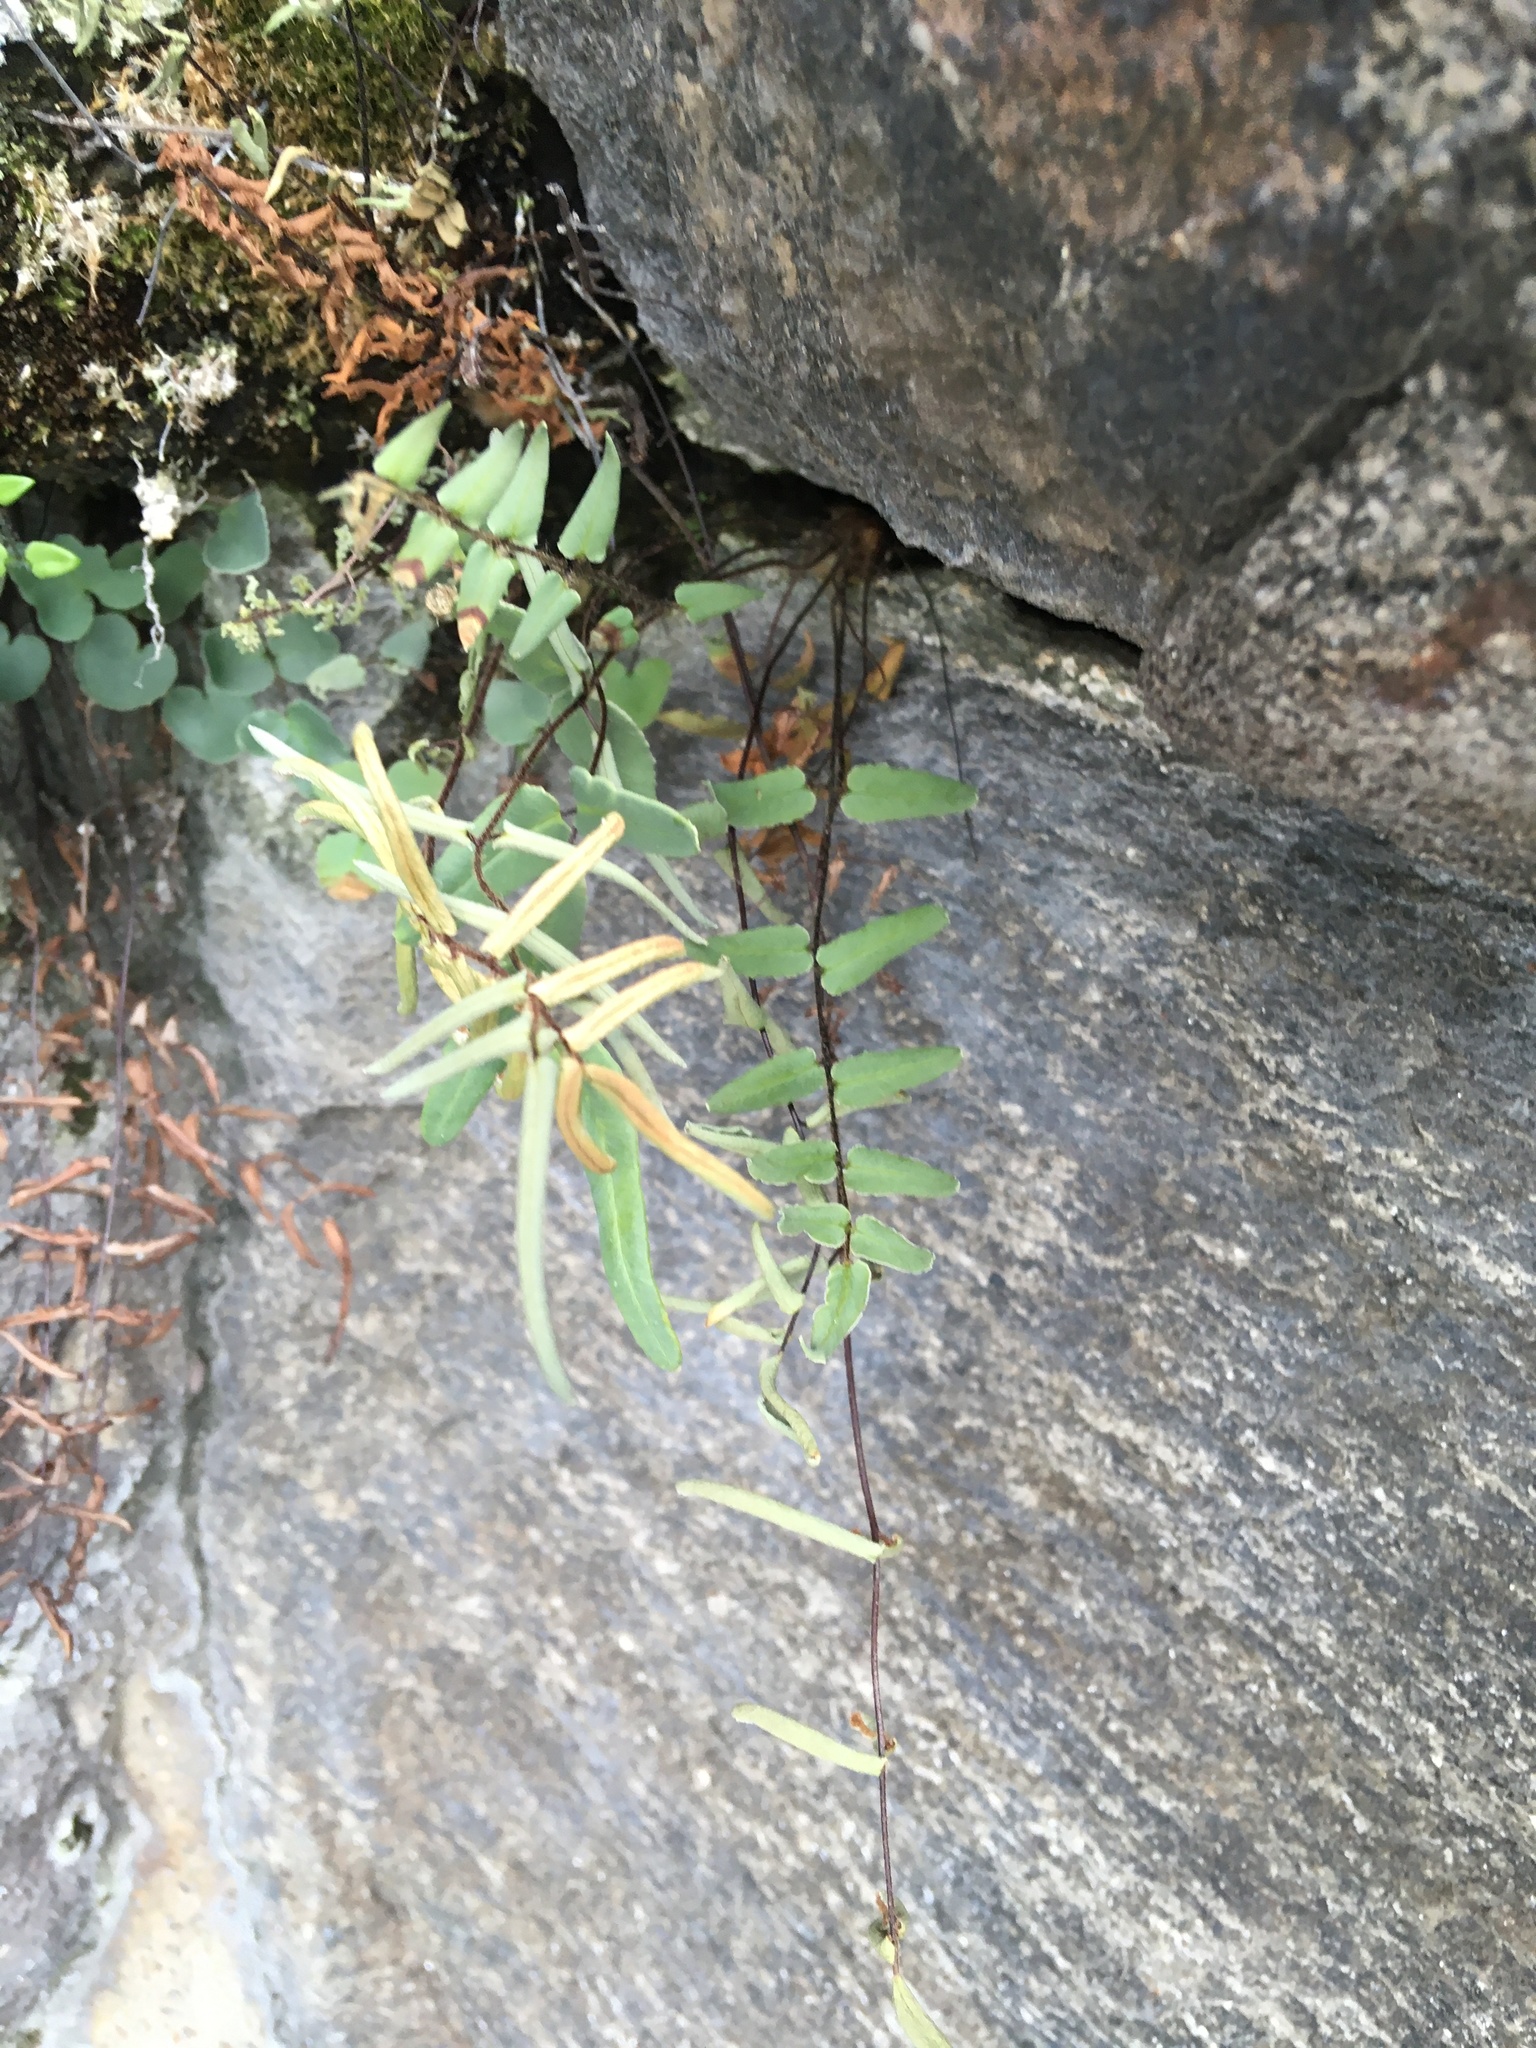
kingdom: Plantae
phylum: Tracheophyta
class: Polypodiopsida
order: Polypodiales
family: Pteridaceae
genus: Pellaea
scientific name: Pellaea atropurpurea
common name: Hairy cliffbrake
